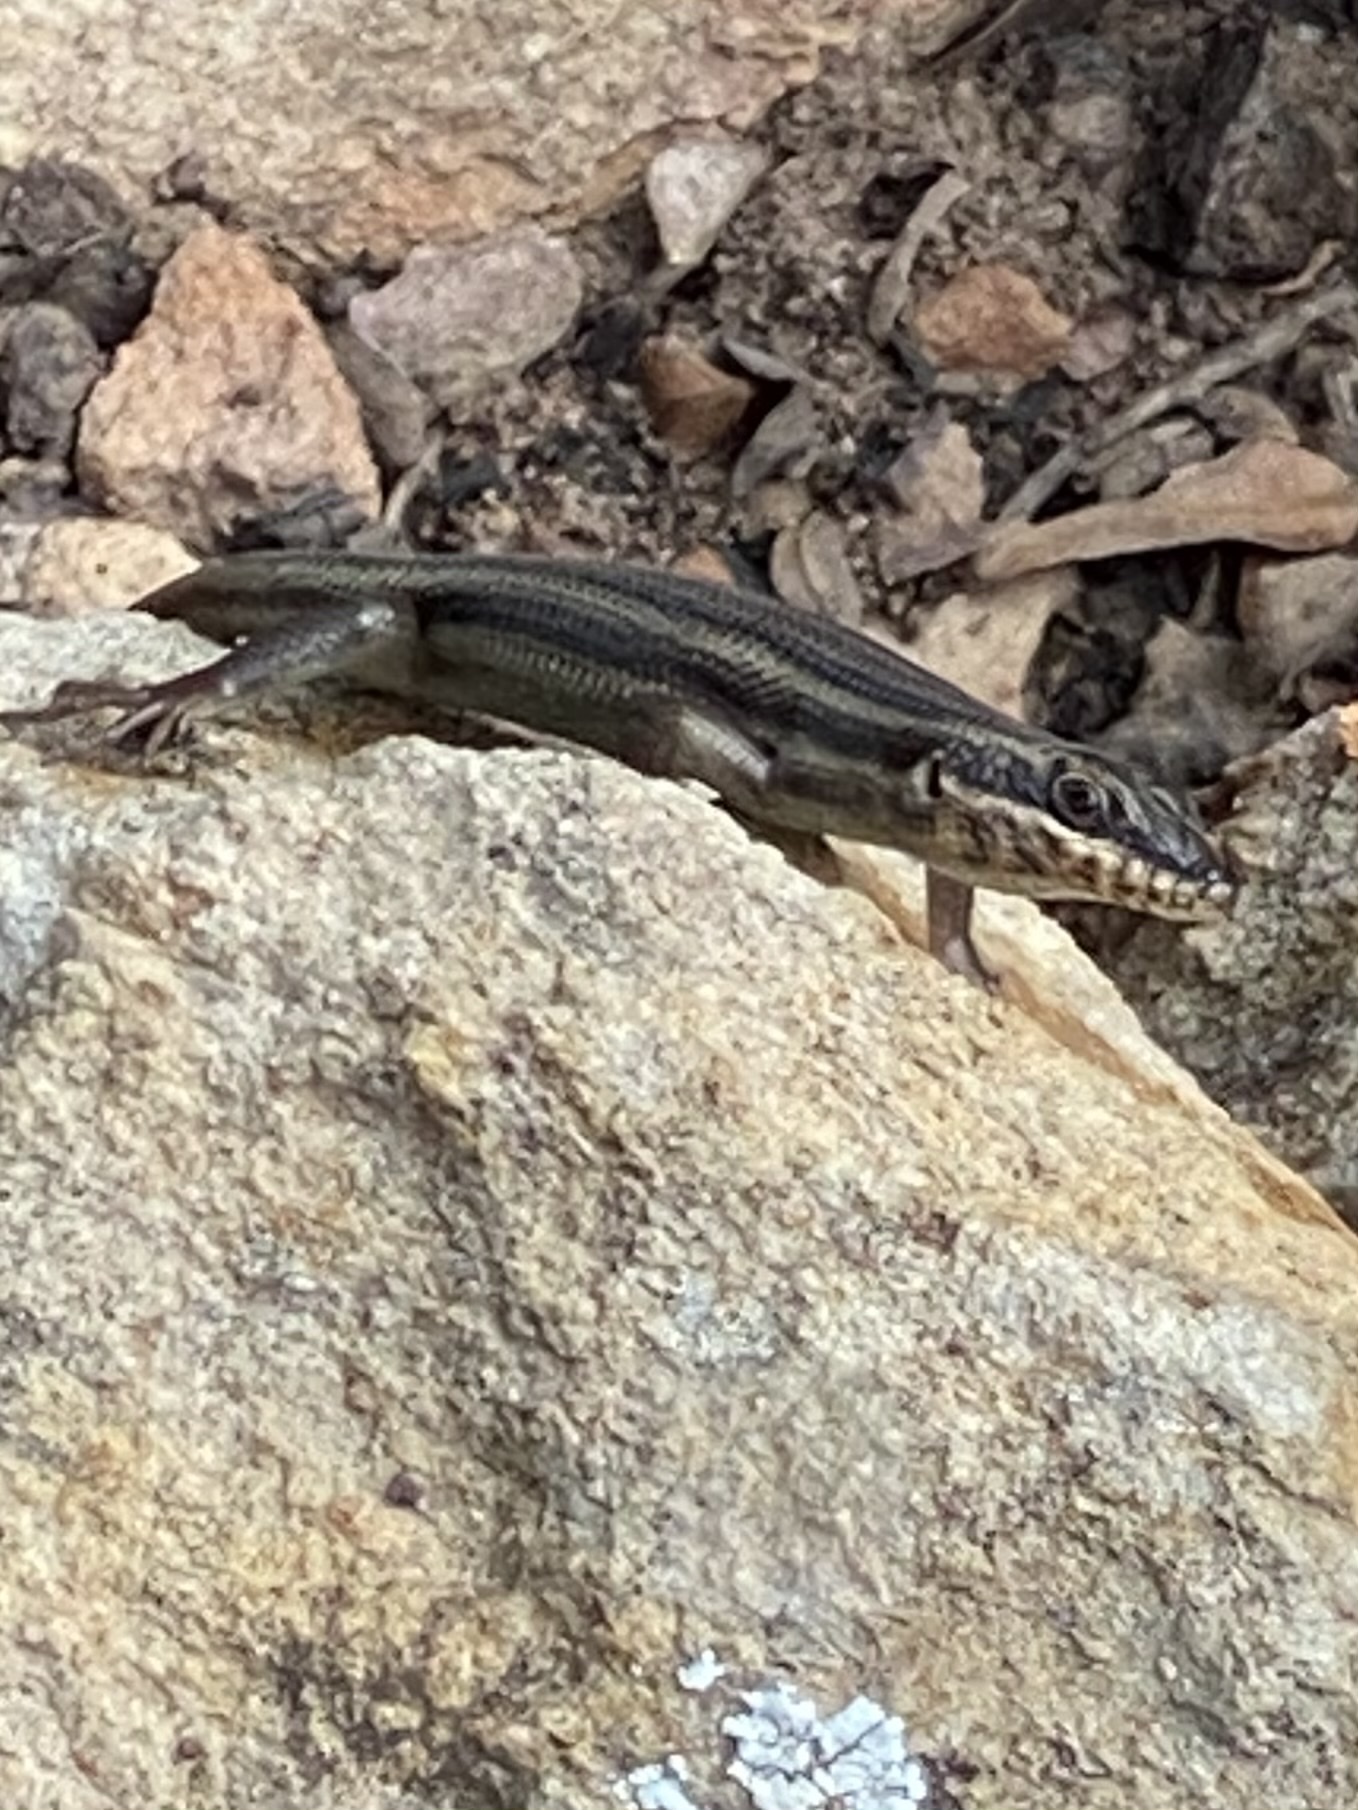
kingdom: Animalia
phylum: Chordata
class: Squamata
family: Scincidae
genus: Trachylepis
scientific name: Trachylepis sulcata
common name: Western rock skink
